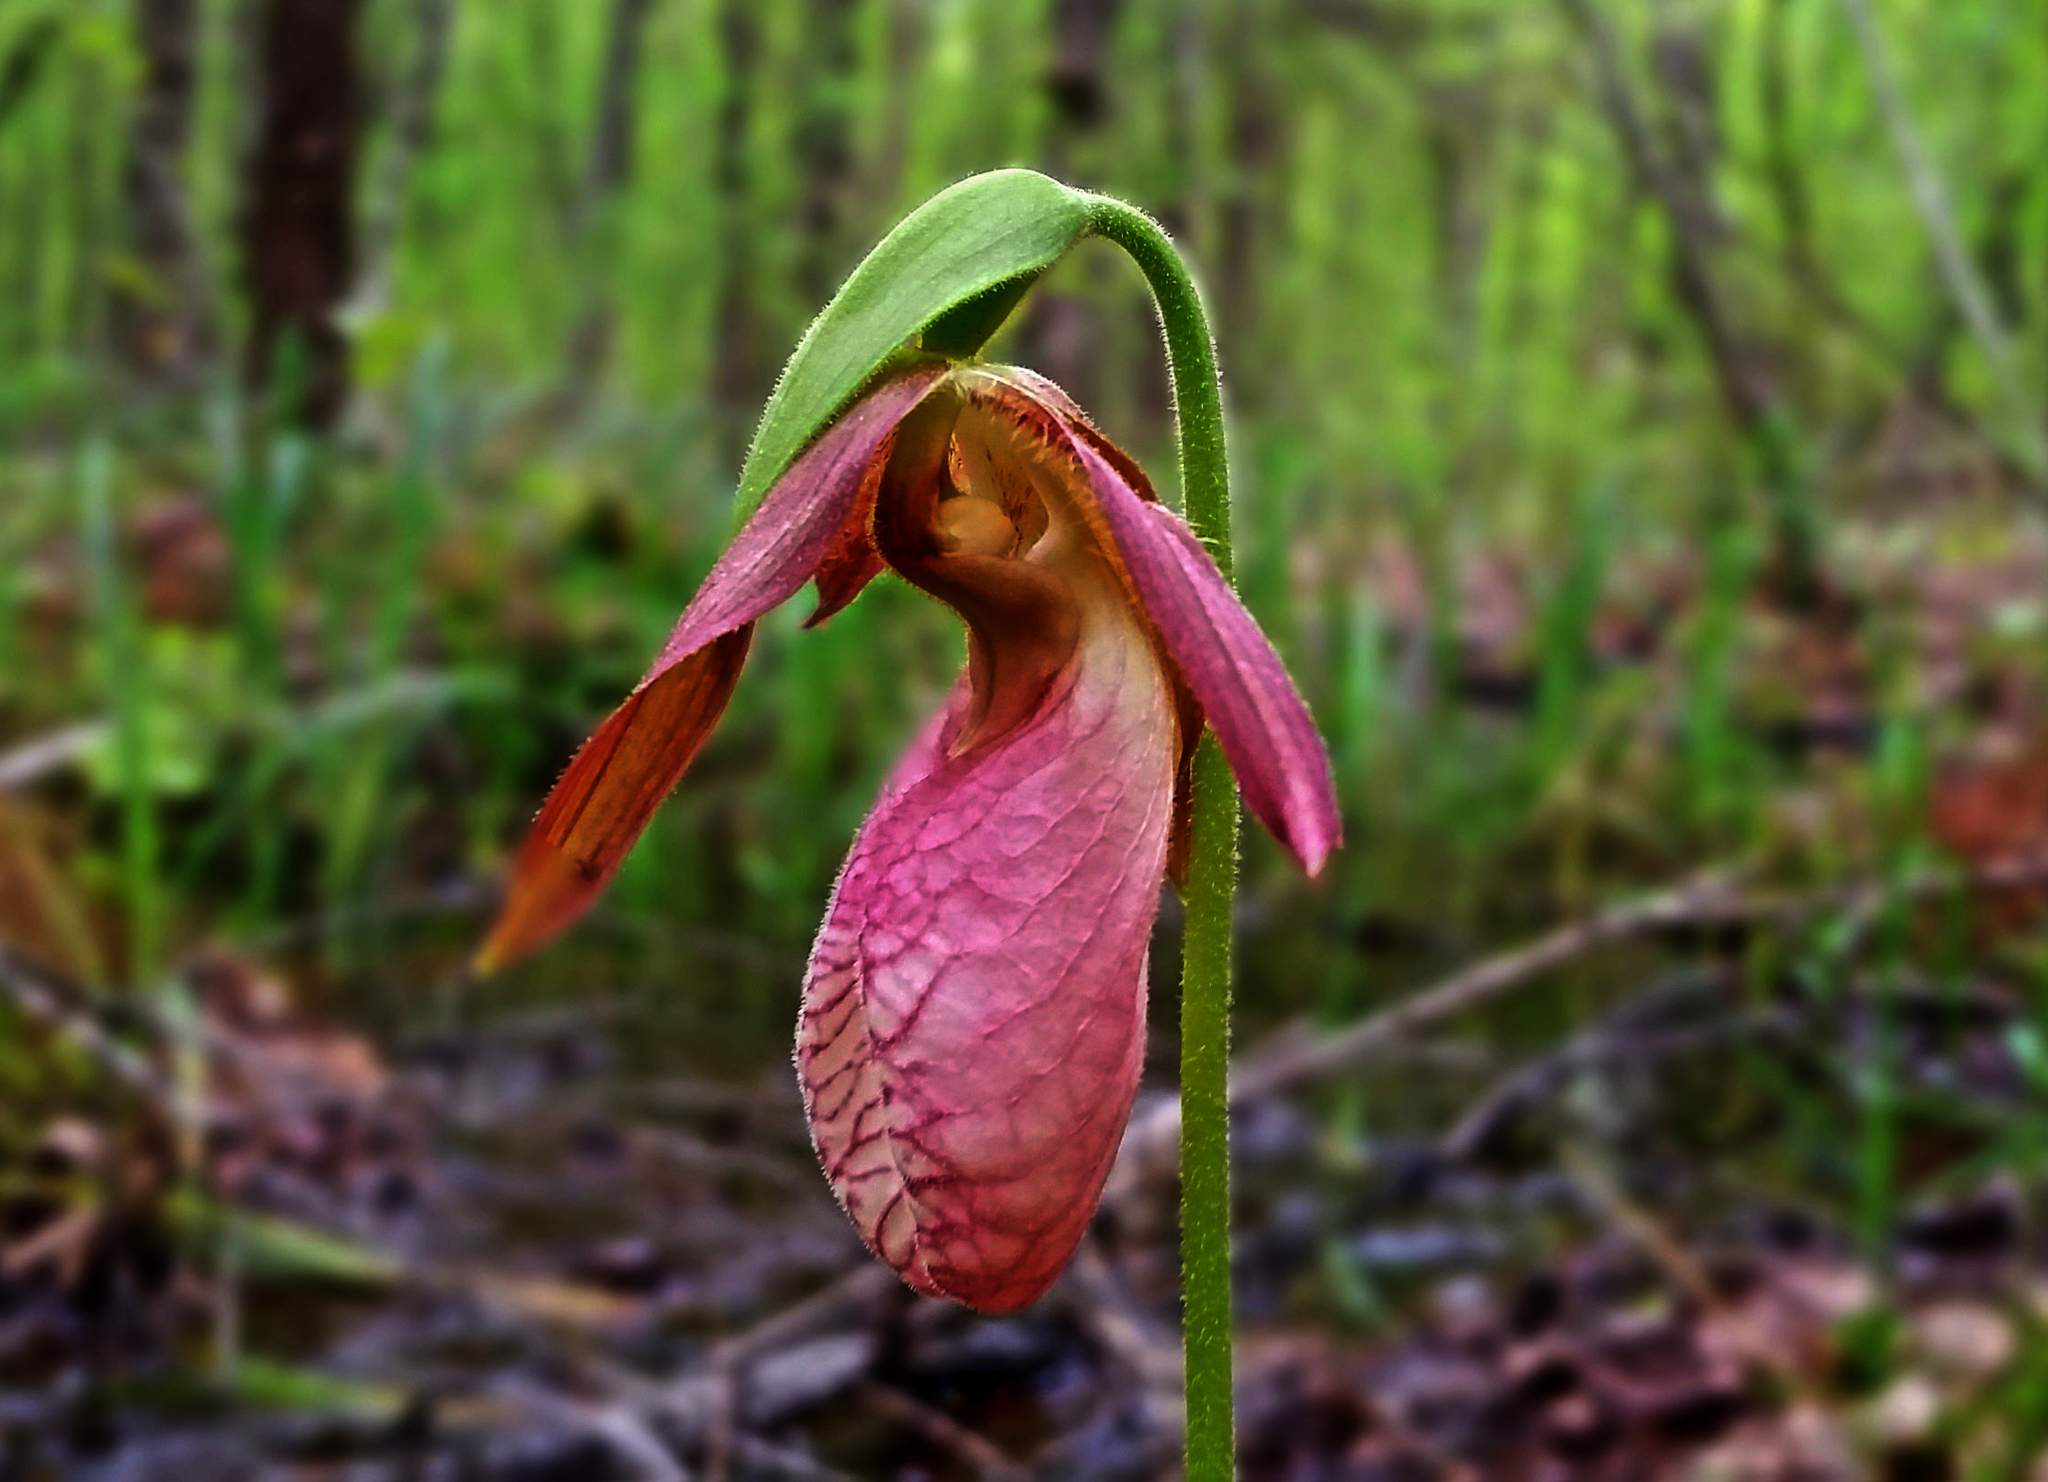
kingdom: Plantae
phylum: Tracheophyta
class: Liliopsida
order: Asparagales
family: Orchidaceae
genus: Cypripedium
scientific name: Cypripedium acaule
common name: Pink lady's-slipper
